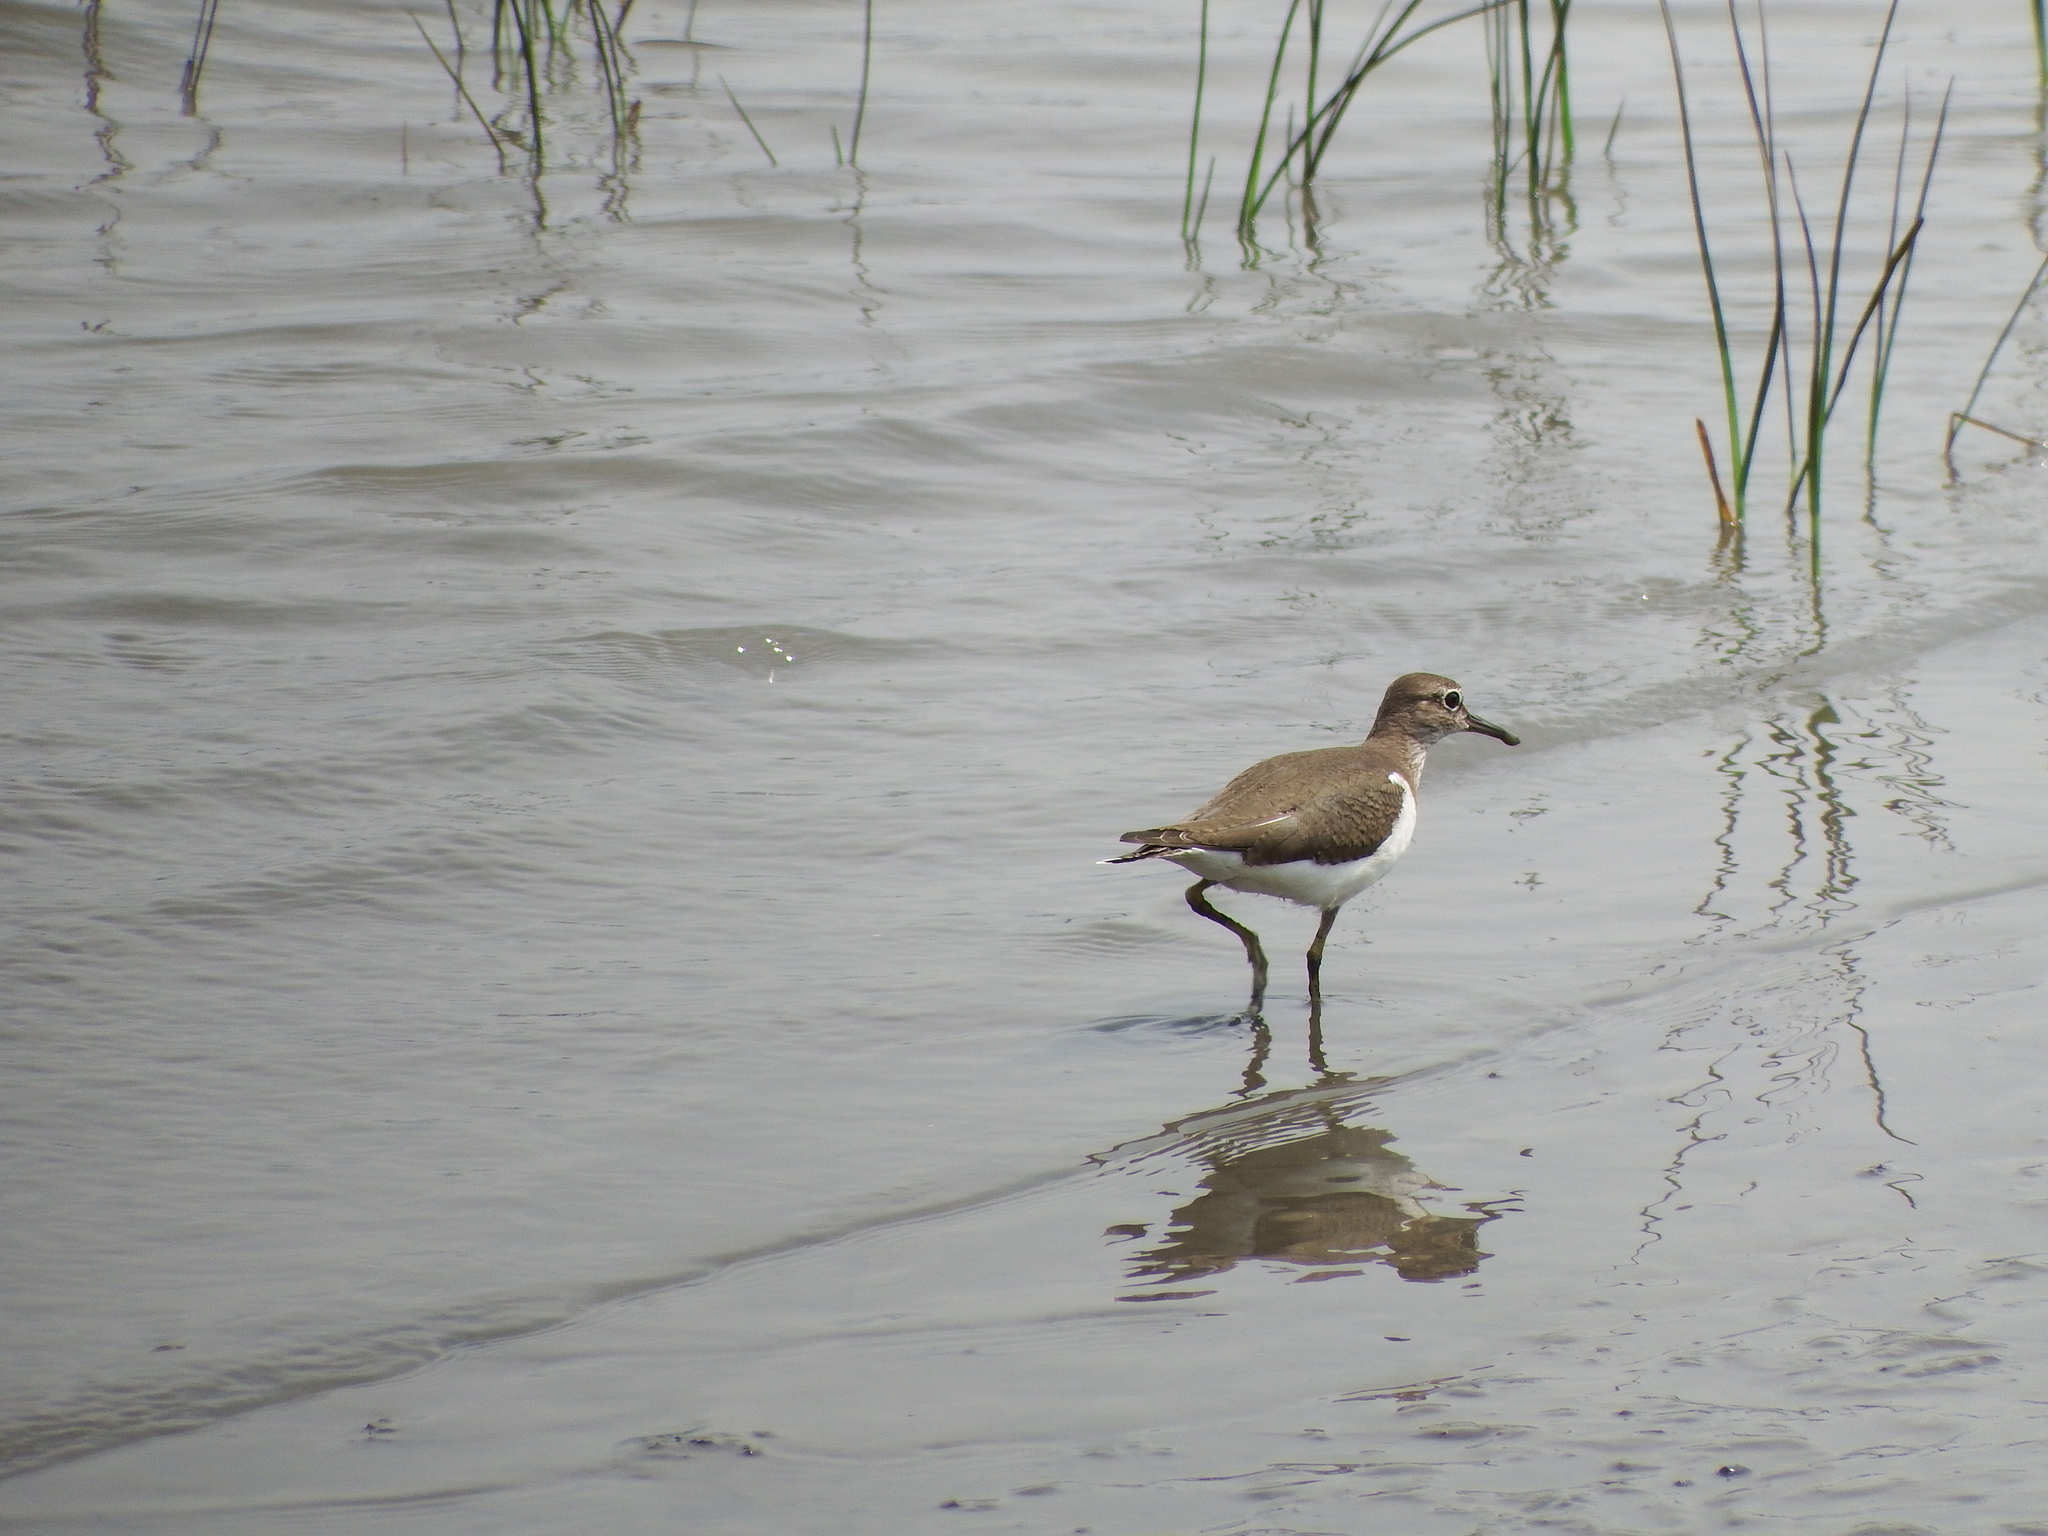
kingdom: Animalia
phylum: Chordata
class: Aves
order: Charadriiformes
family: Scolopacidae
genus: Actitis
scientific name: Actitis hypoleucos
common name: Common sandpiper
